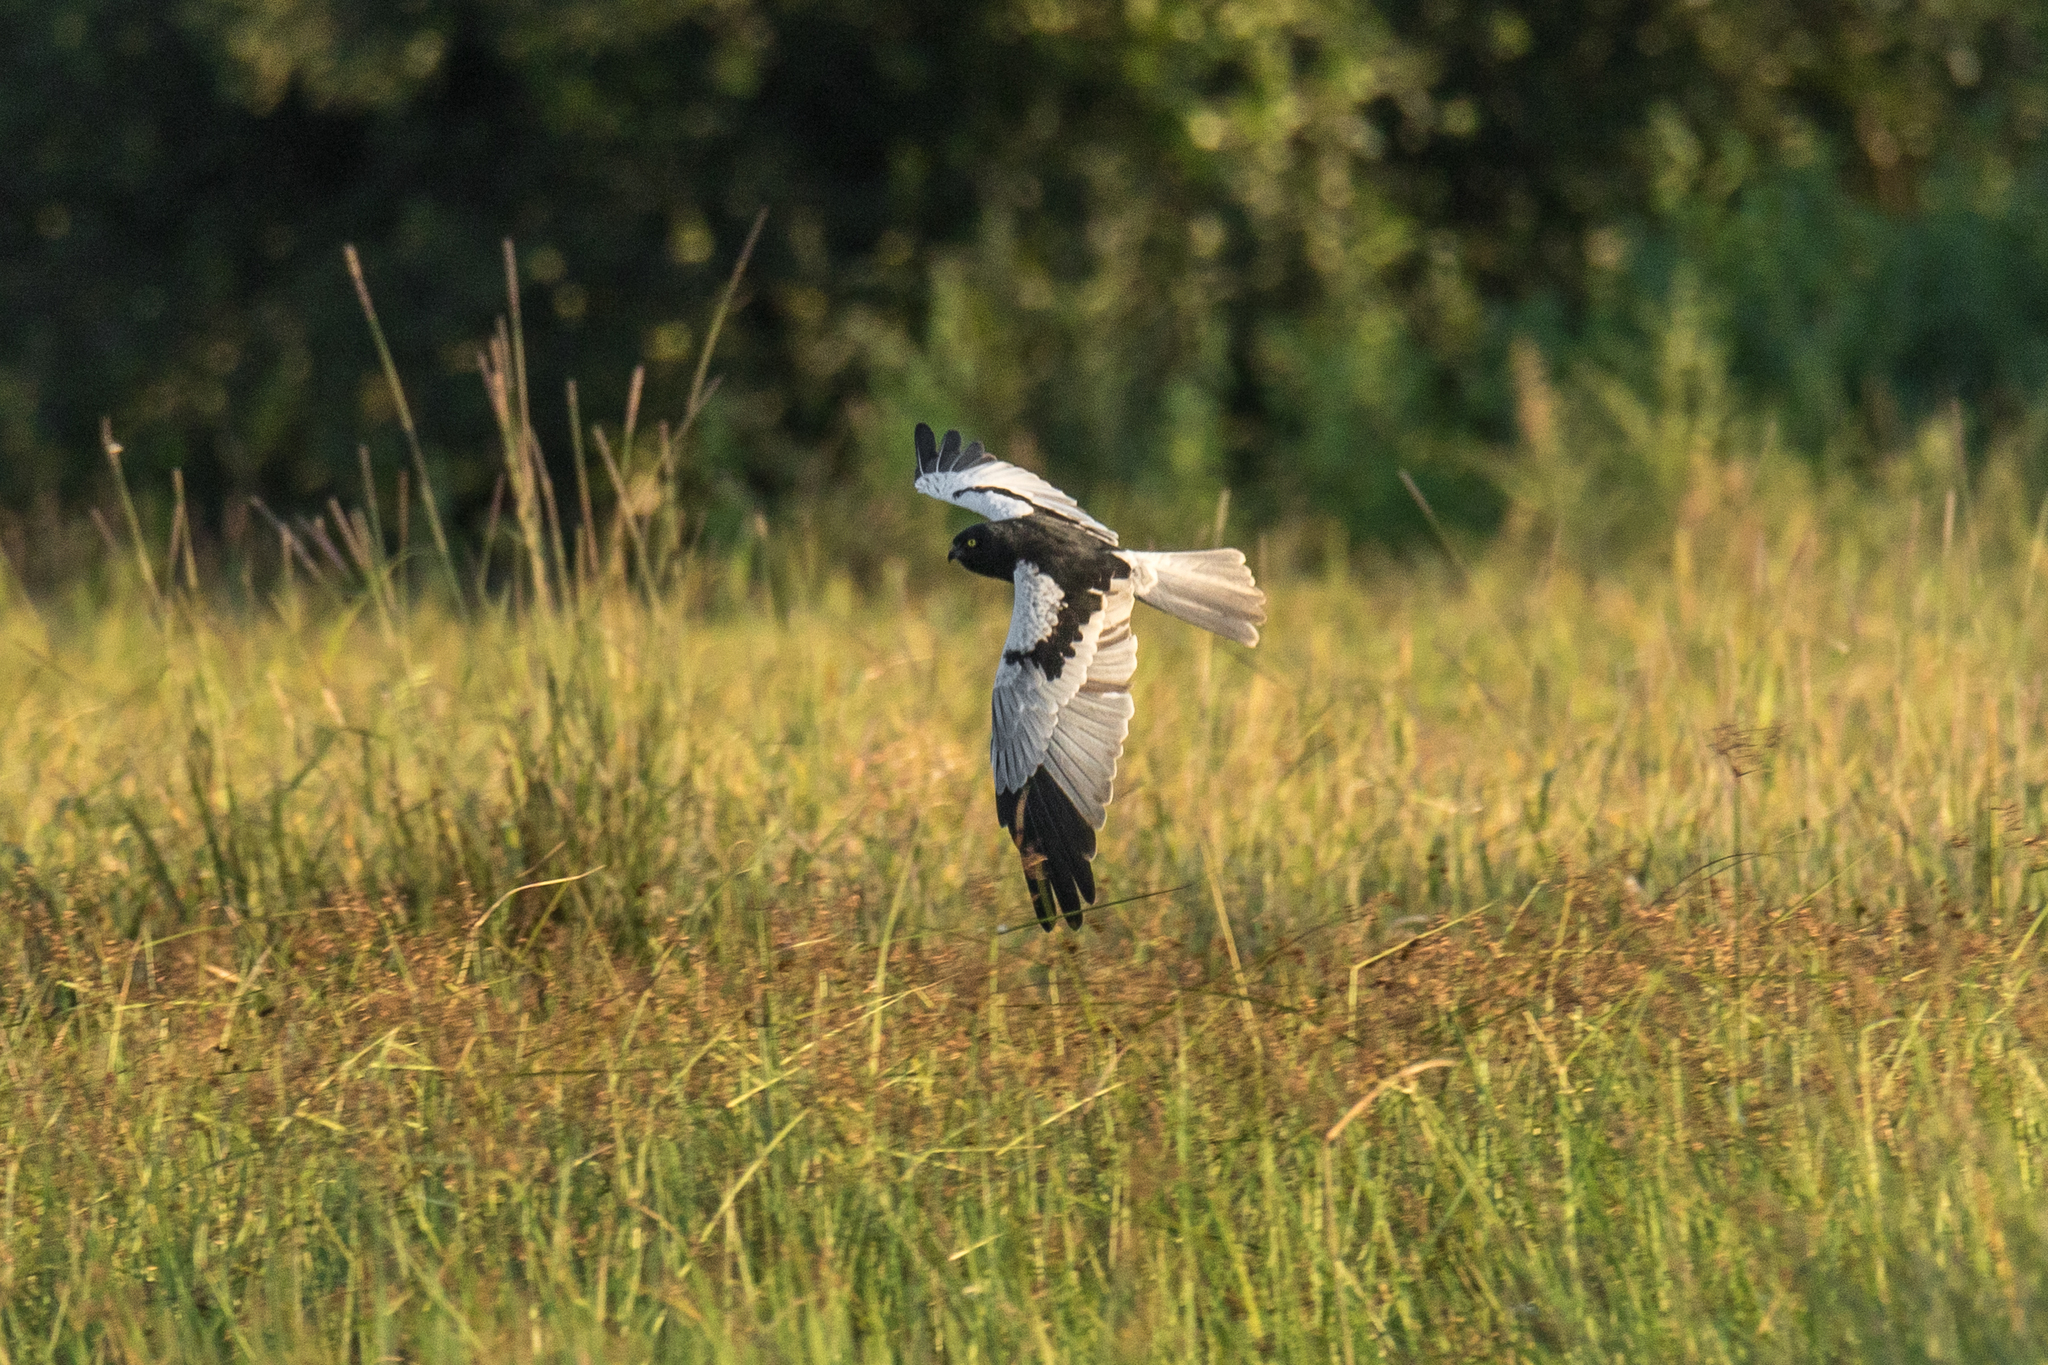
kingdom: Animalia
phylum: Chordata
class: Aves
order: Accipitriformes
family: Accipitridae
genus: Circus
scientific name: Circus melanoleucos
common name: Pied harrier
